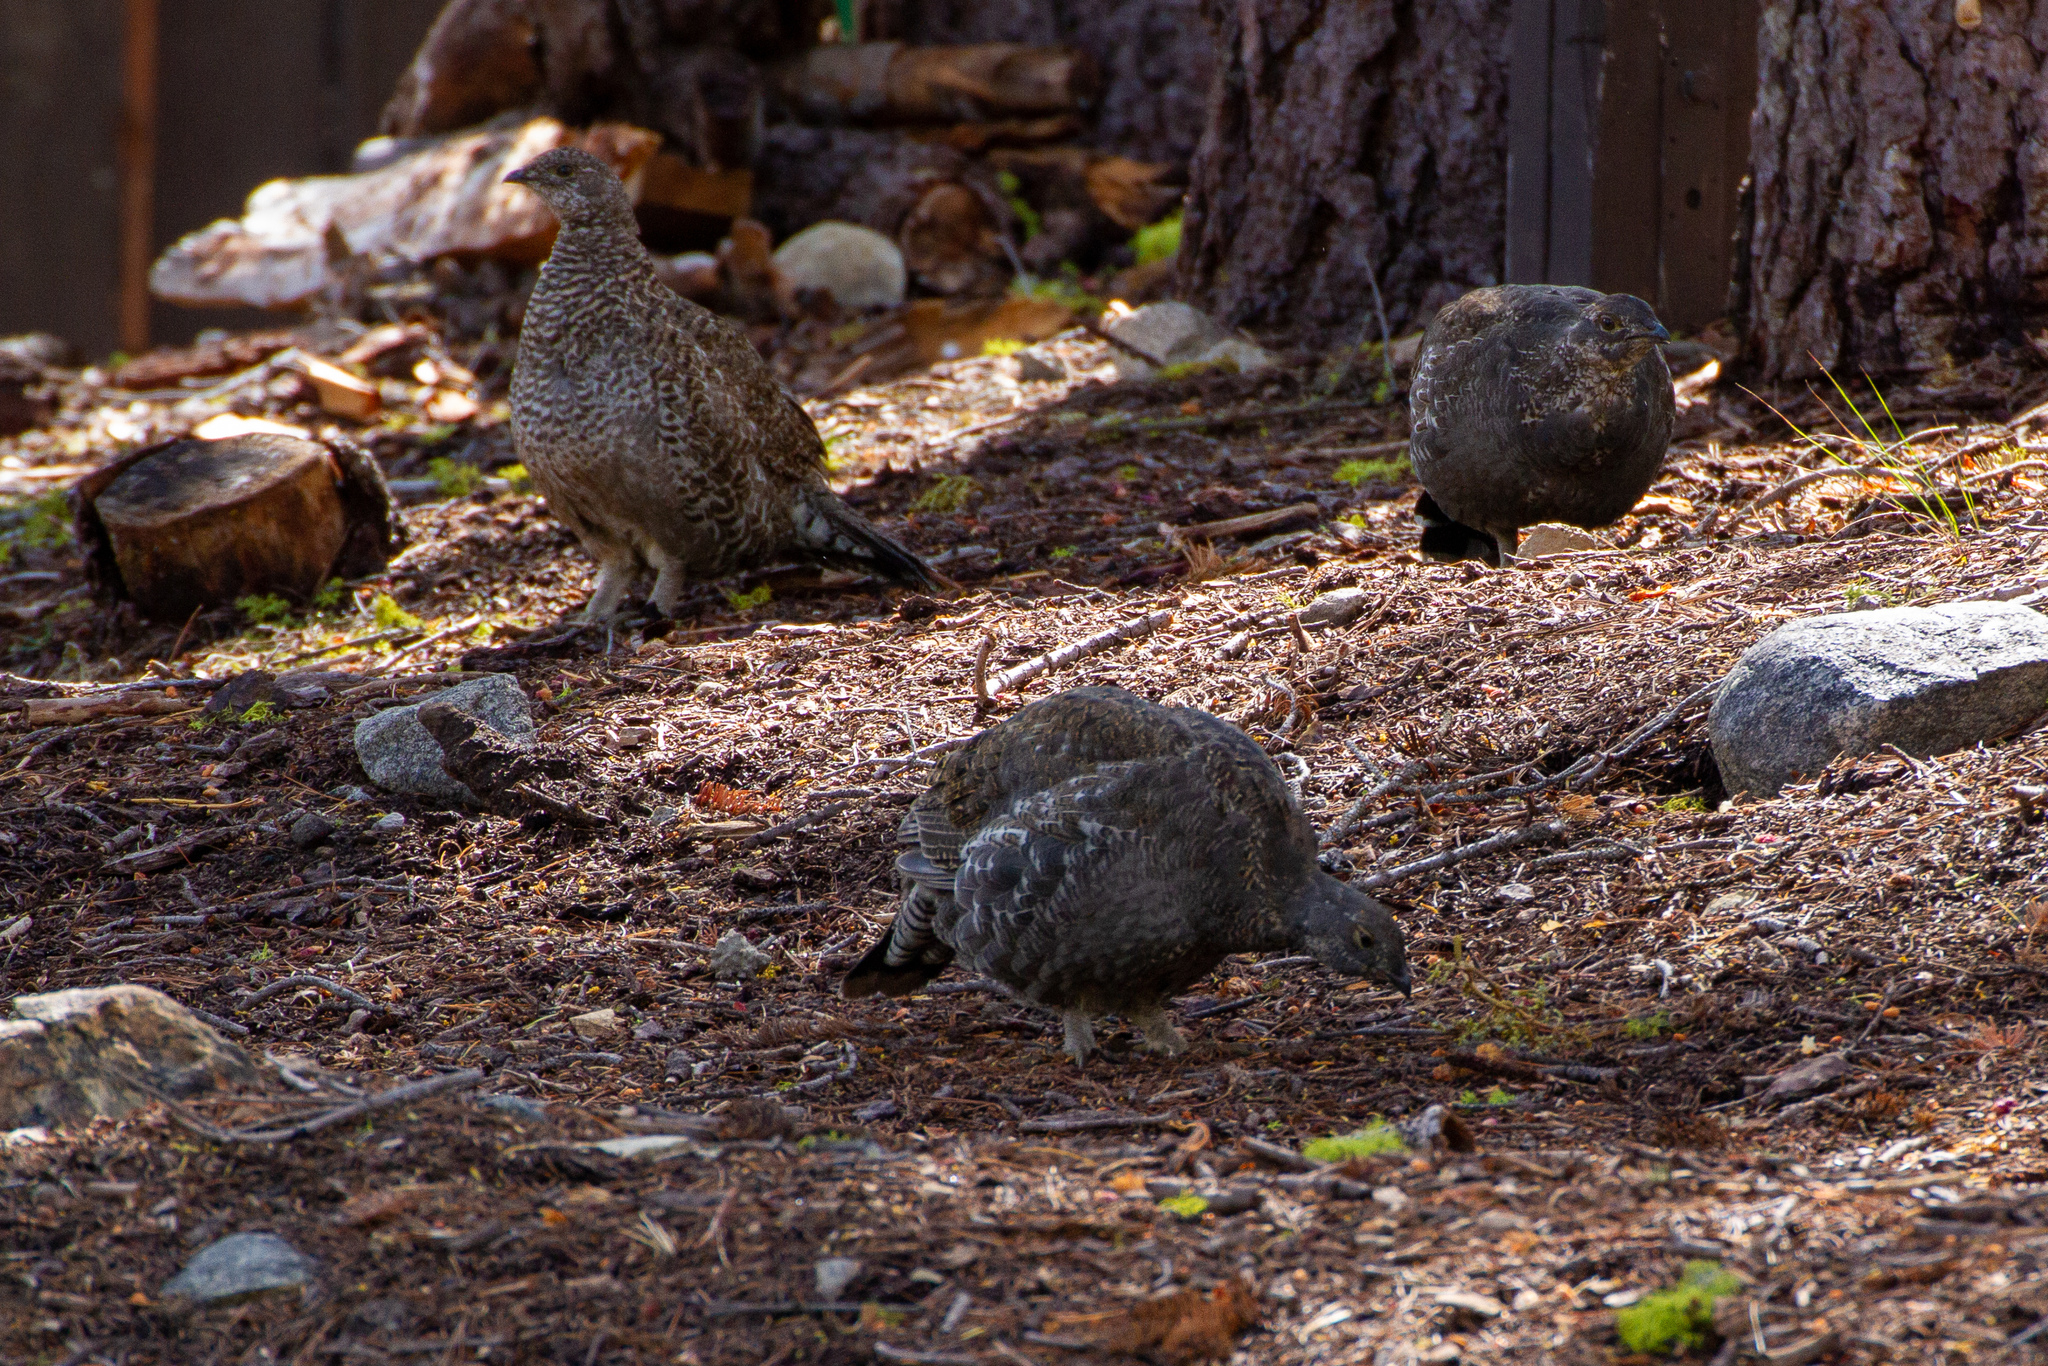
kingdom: Animalia
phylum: Chordata
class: Aves
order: Galliformes
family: Phasianidae
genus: Dendragapus
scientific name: Dendragapus fuliginosus
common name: Sooty grouse
